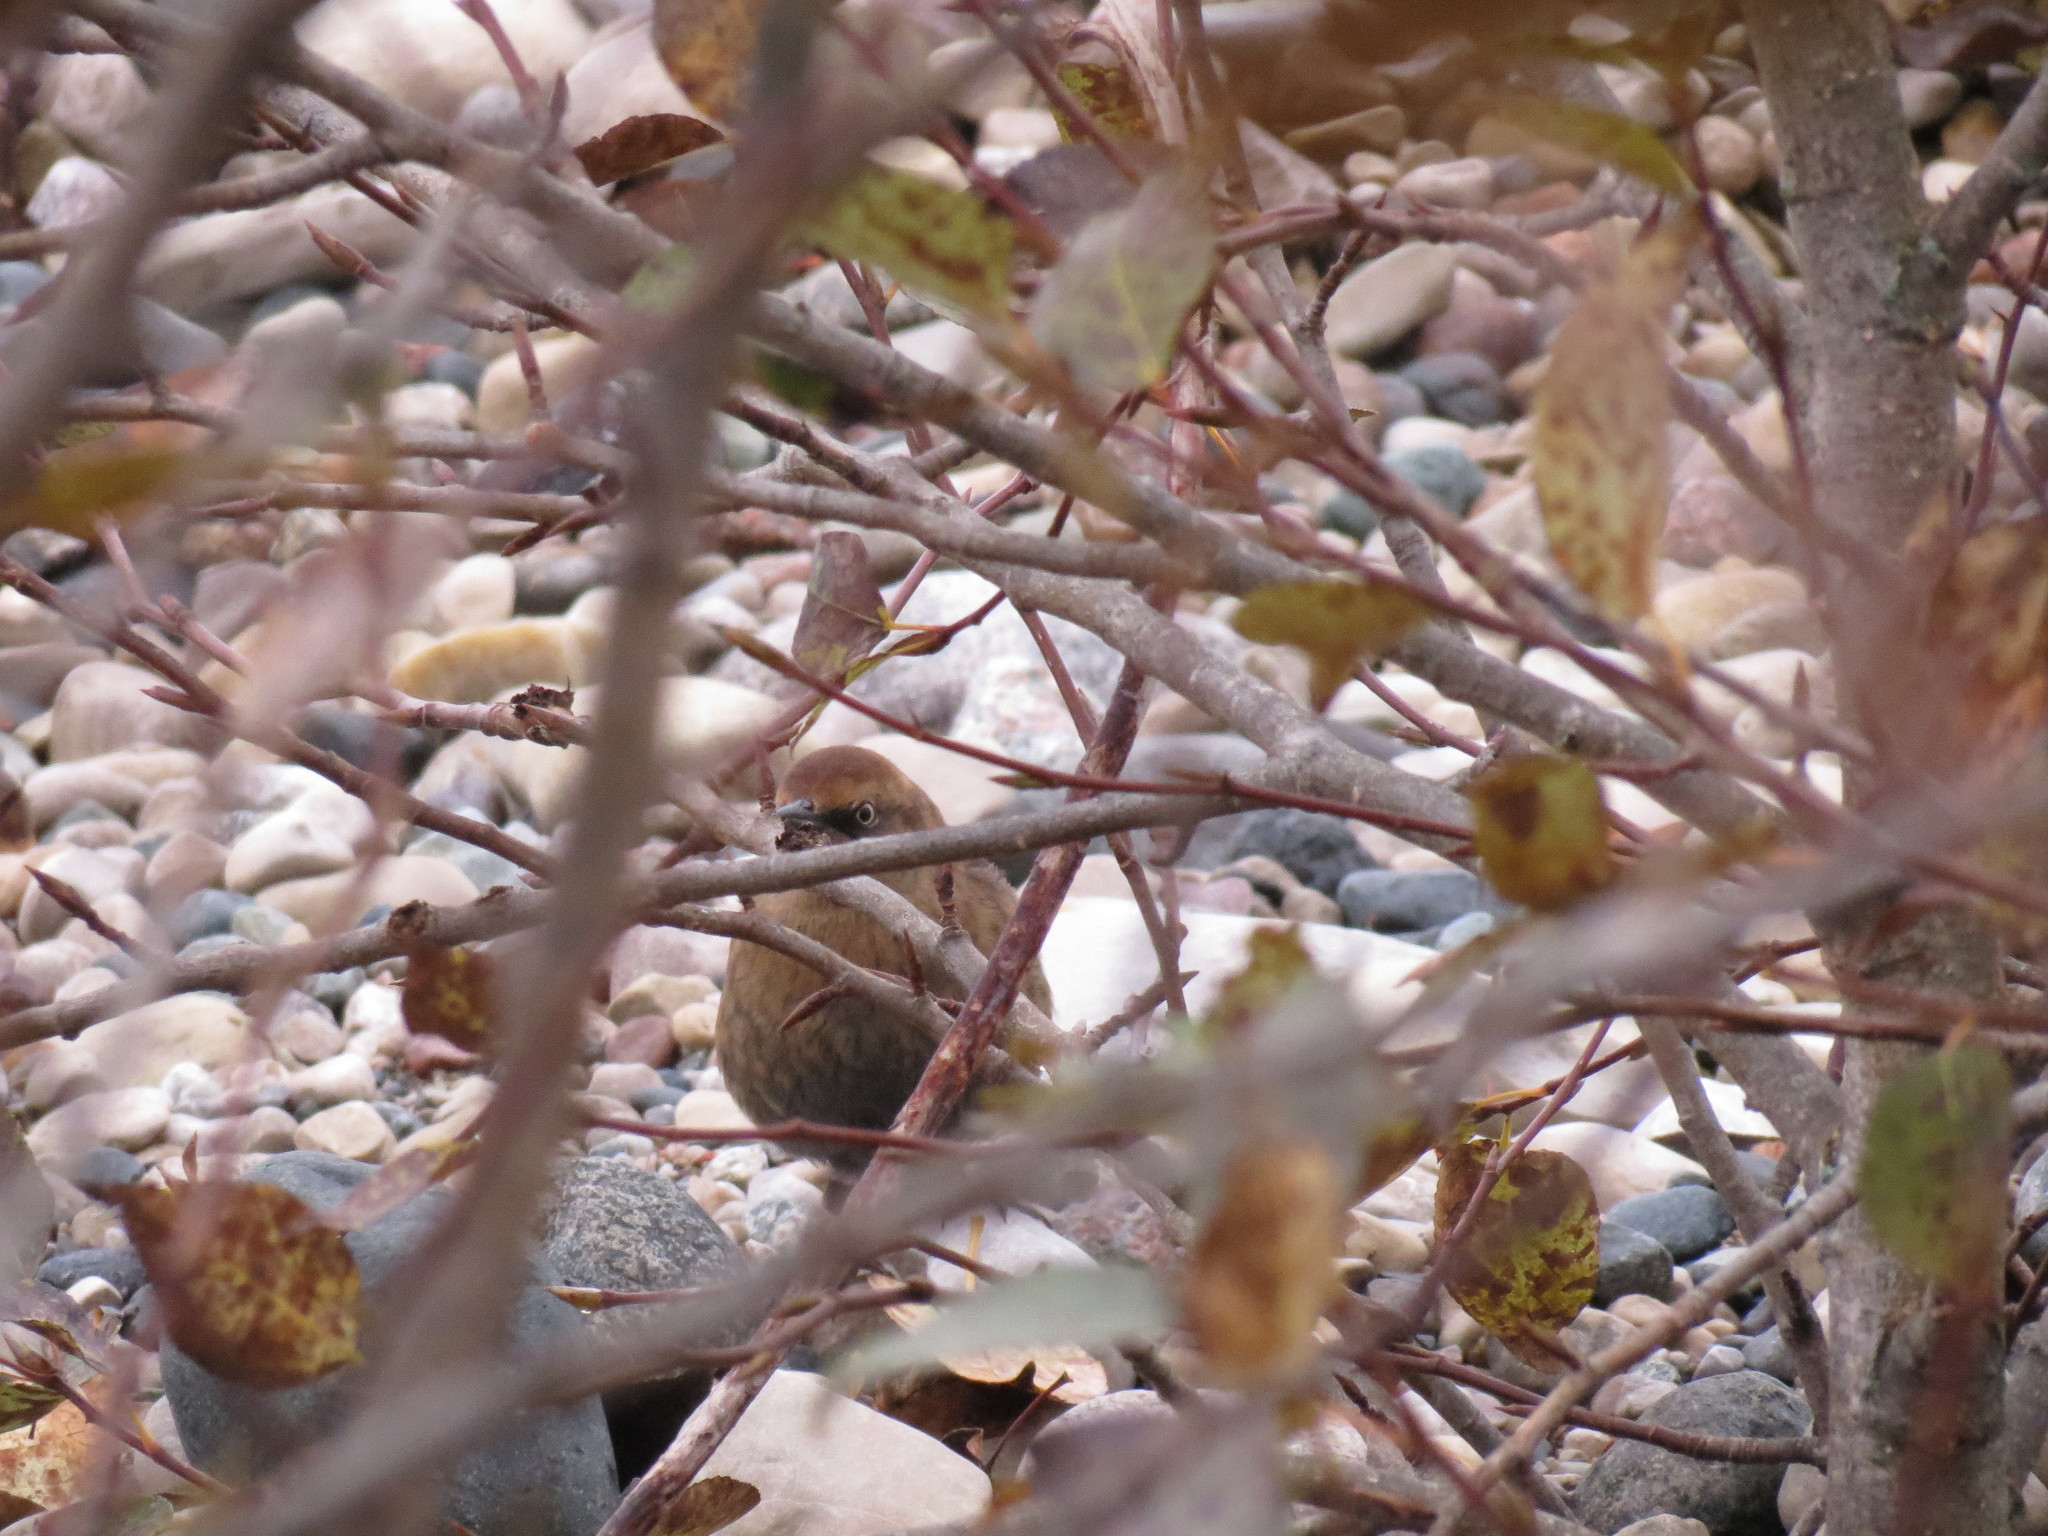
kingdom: Animalia
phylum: Chordata
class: Aves
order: Passeriformes
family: Icteridae
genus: Euphagus
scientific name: Euphagus carolinus
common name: Rusty blackbird
